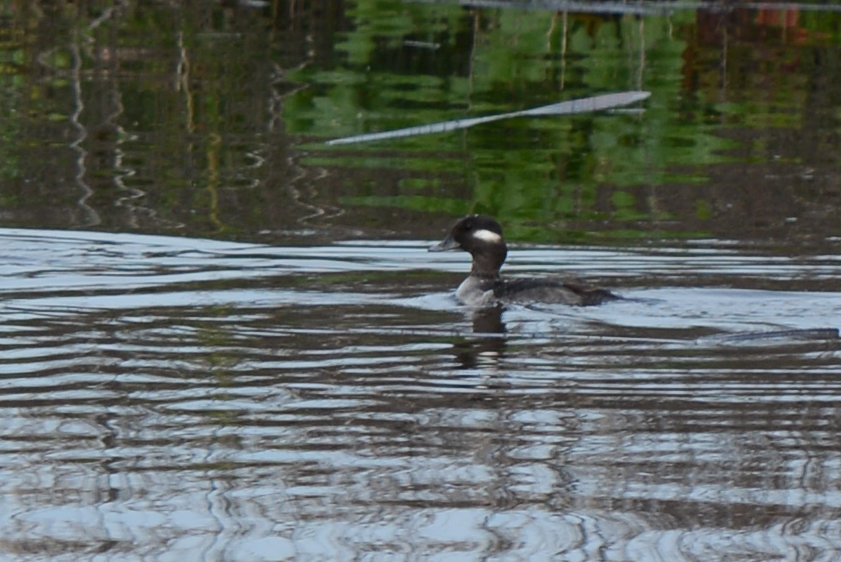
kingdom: Animalia
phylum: Chordata
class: Aves
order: Anseriformes
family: Anatidae
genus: Bucephala
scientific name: Bucephala albeola
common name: Bufflehead
